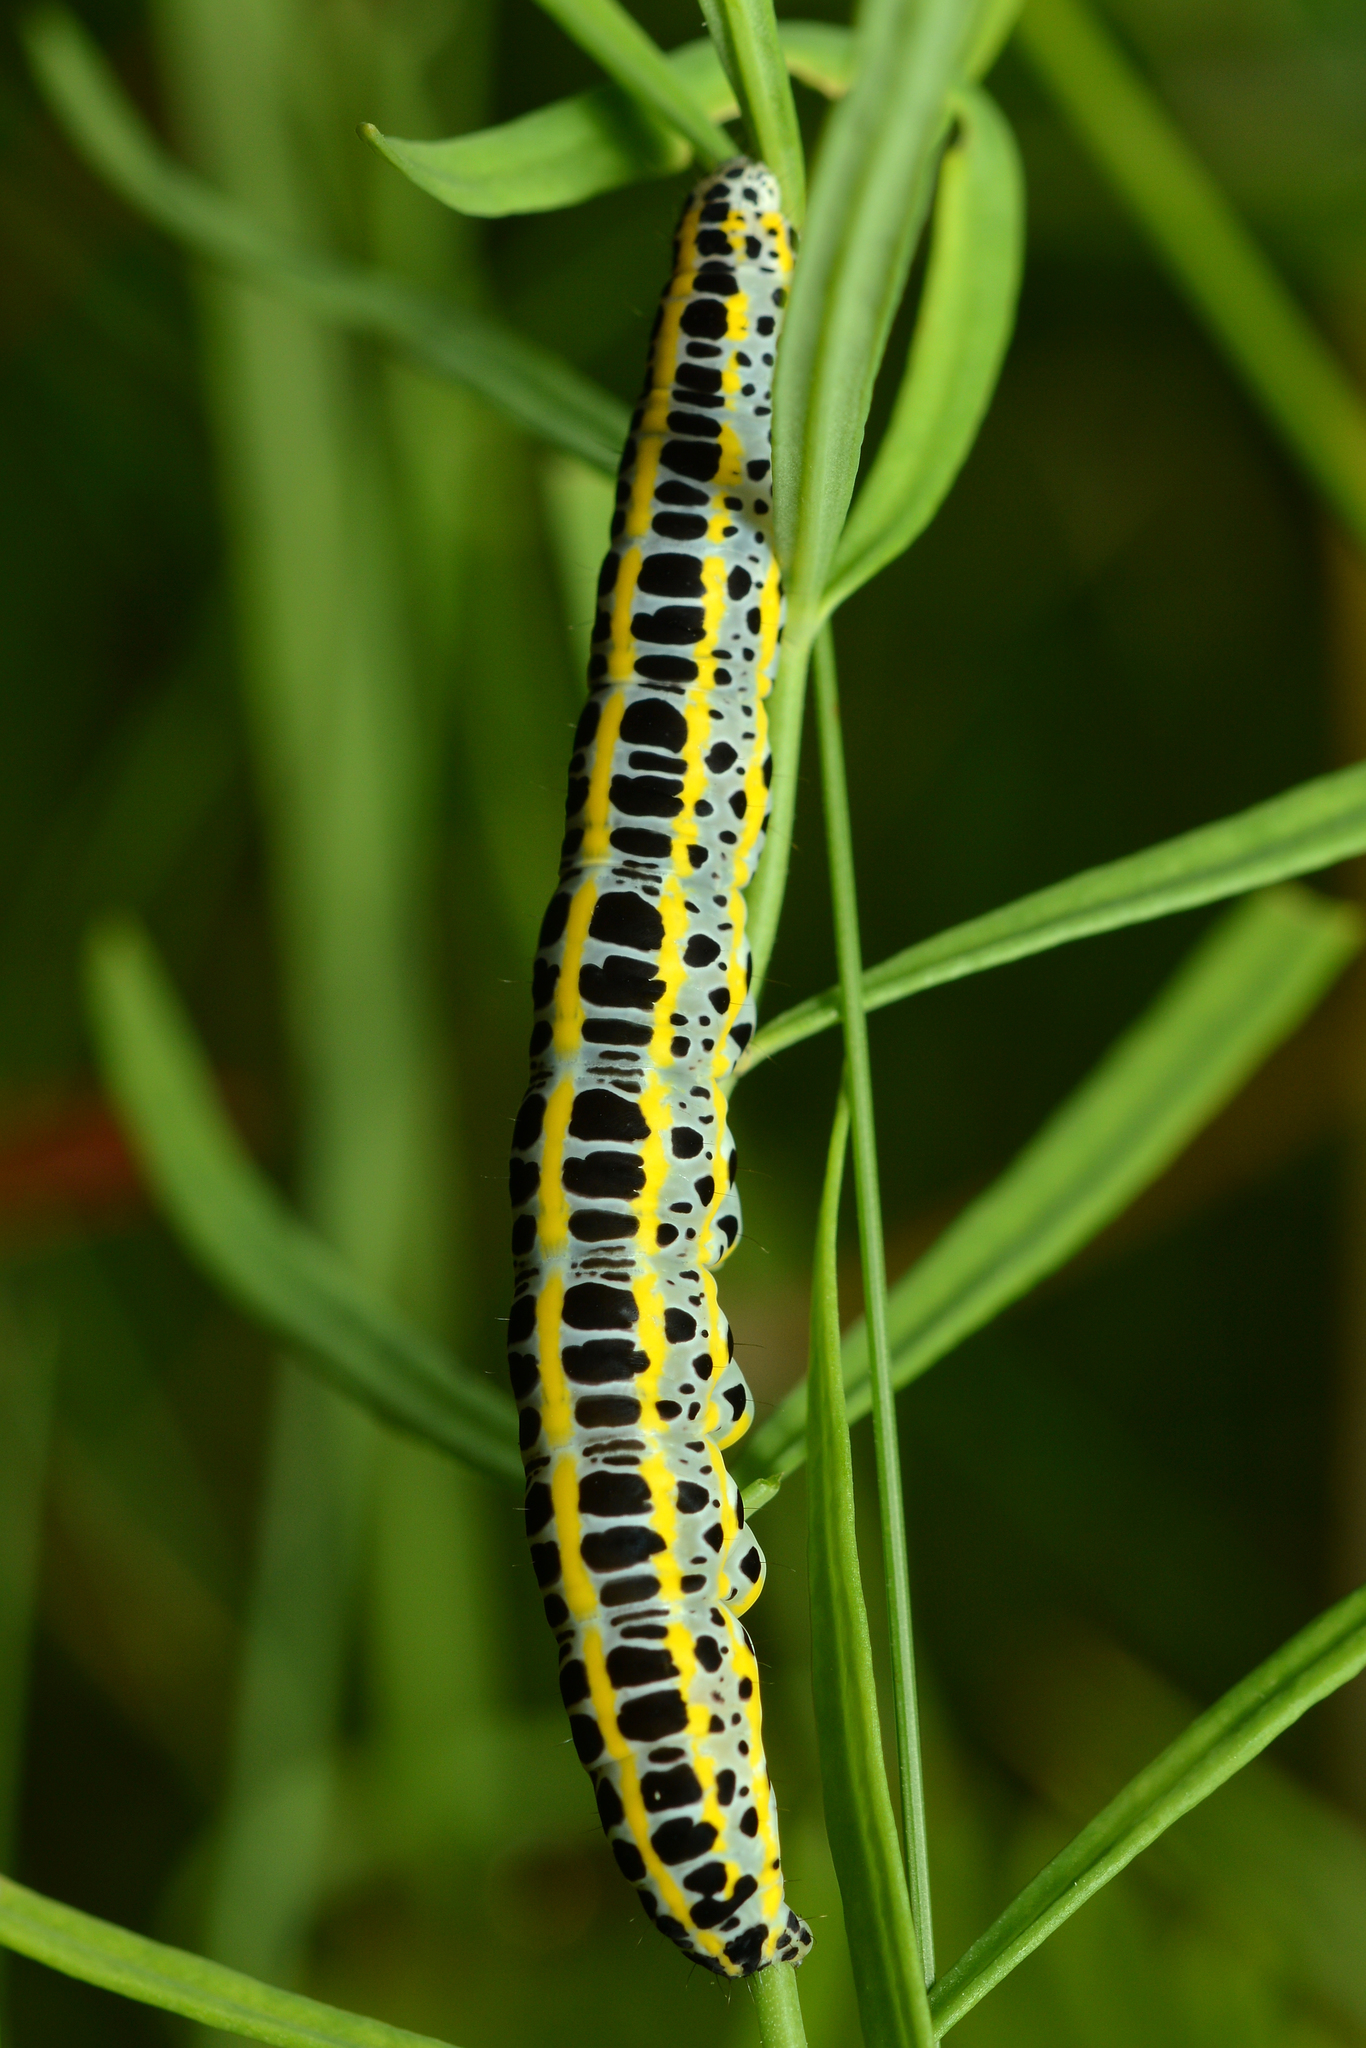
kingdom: Animalia
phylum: Arthropoda
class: Insecta
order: Lepidoptera
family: Noctuidae
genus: Calophasia
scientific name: Calophasia lunula
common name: Toadflax brocade
